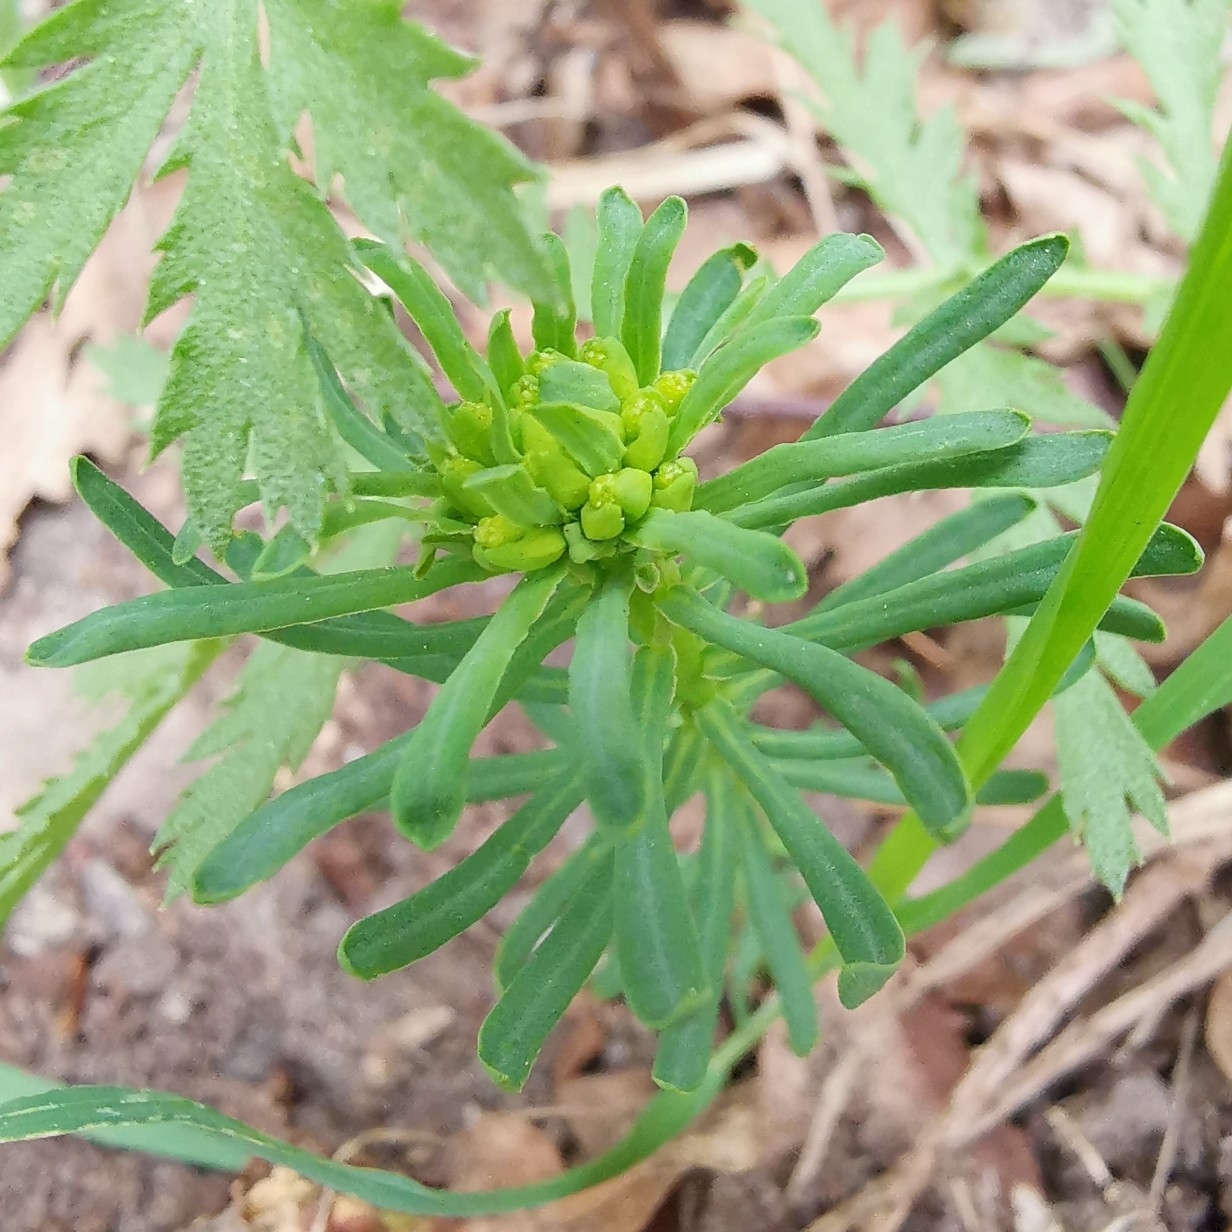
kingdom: Plantae
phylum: Tracheophyta
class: Magnoliopsida
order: Malpighiales
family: Euphorbiaceae
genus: Euphorbia
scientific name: Euphorbia cyparissias
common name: Cypress spurge
